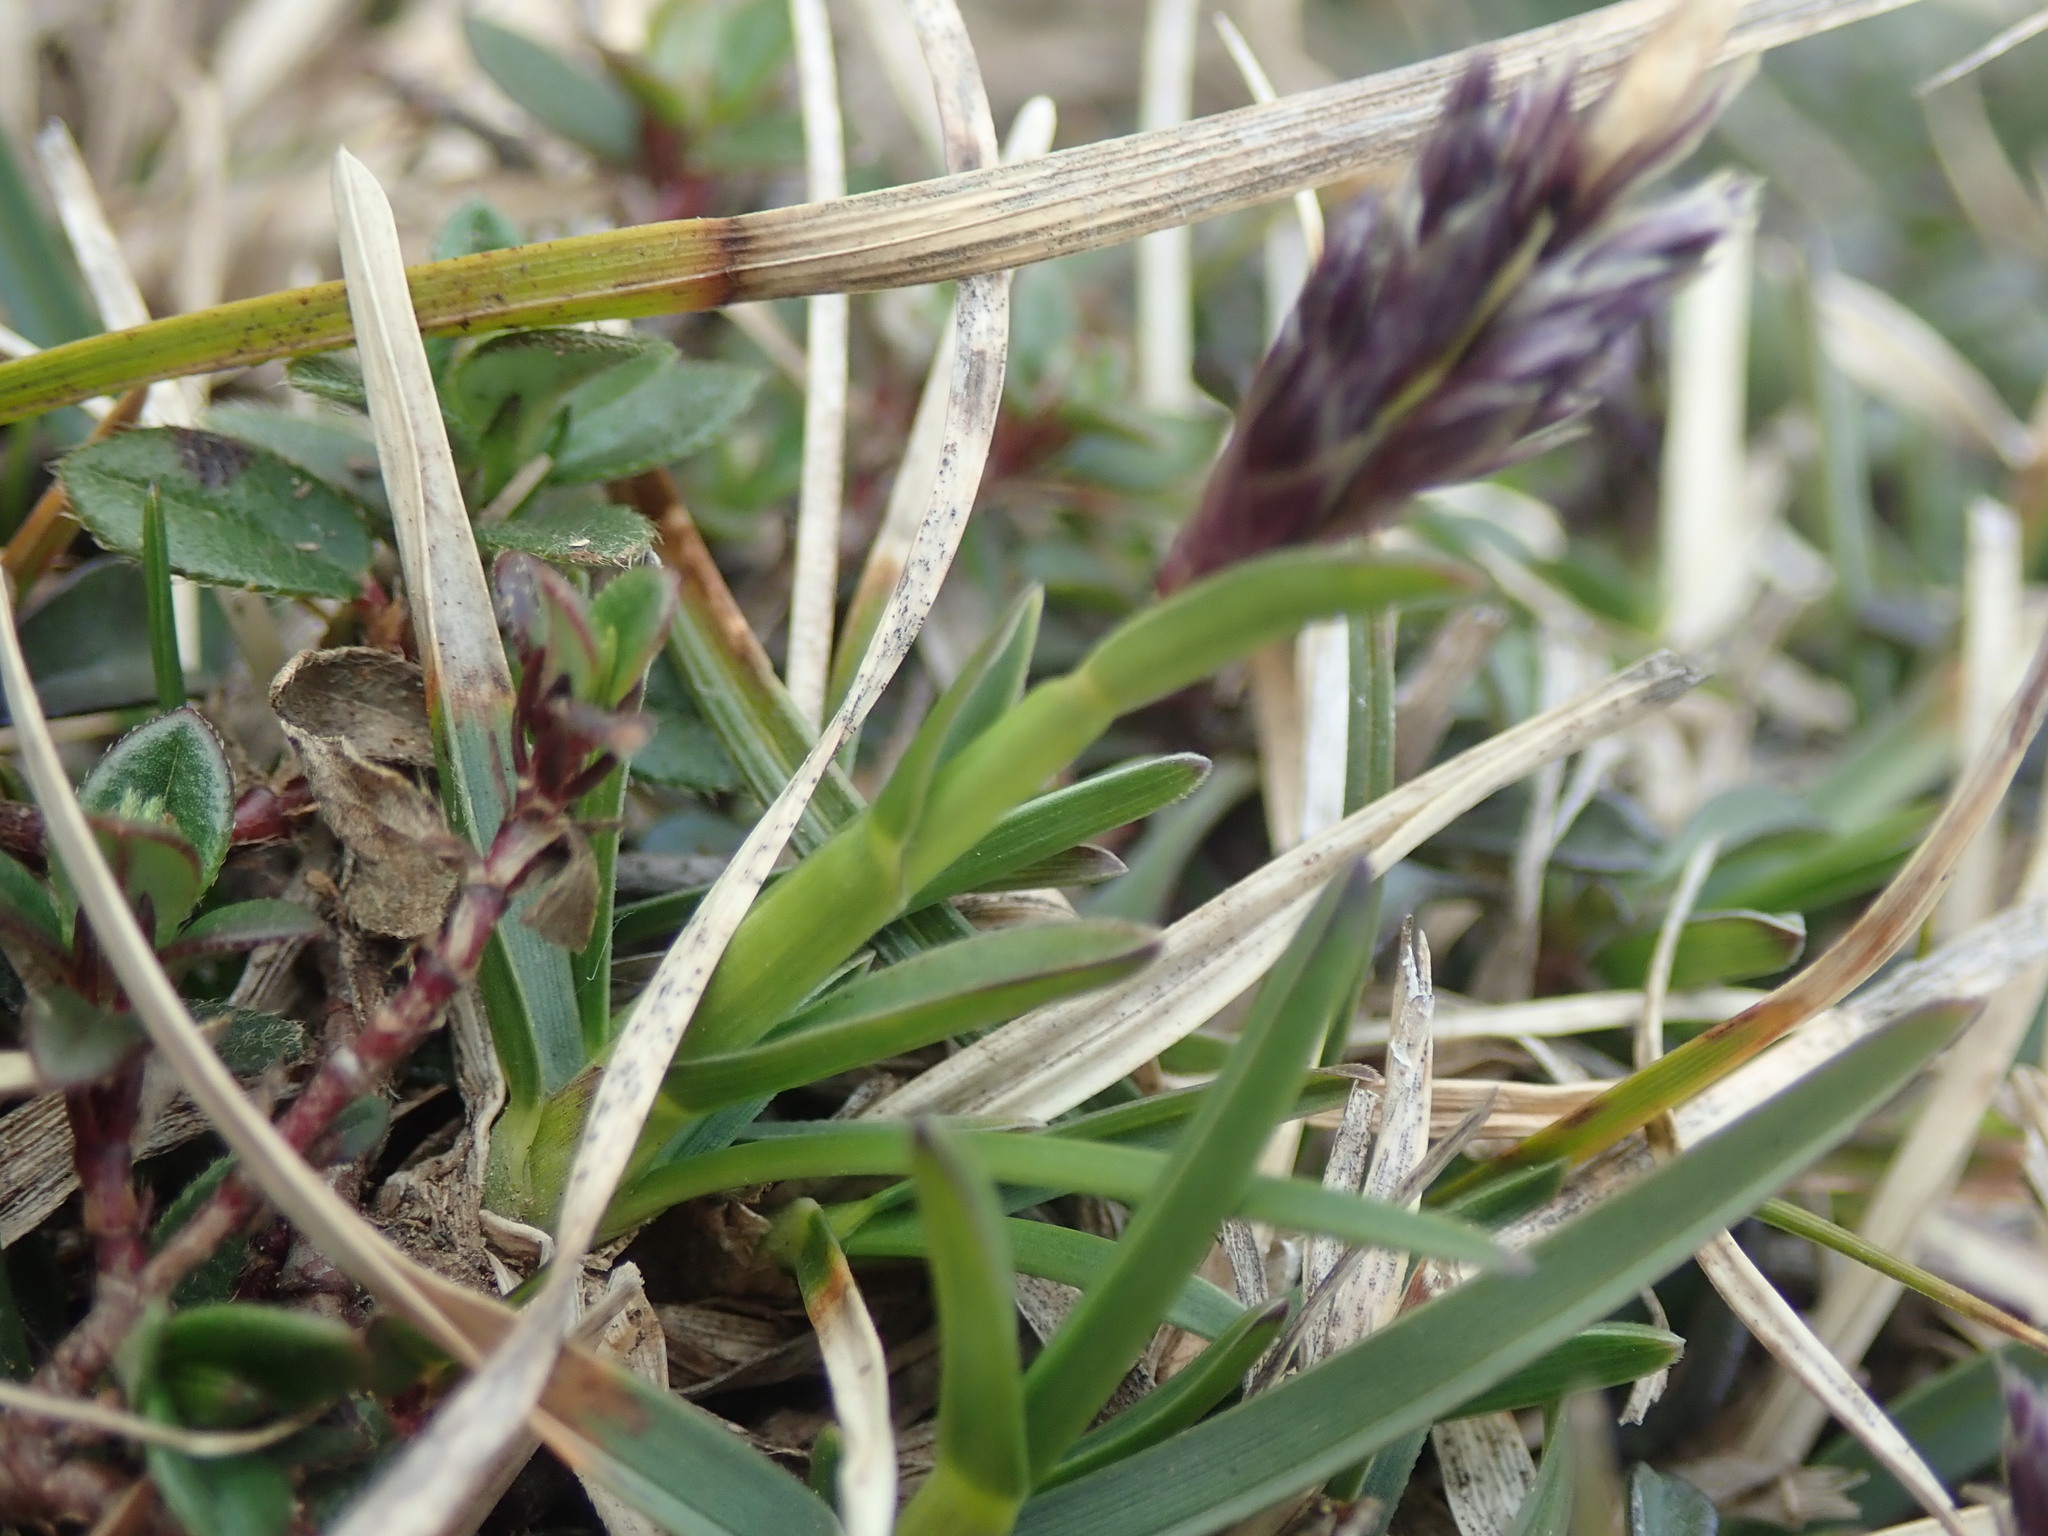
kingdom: Plantae
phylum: Tracheophyta
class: Liliopsida
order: Poales
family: Poaceae
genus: Sesleria
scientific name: Sesleria caerulea
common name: Blue moor-grass
